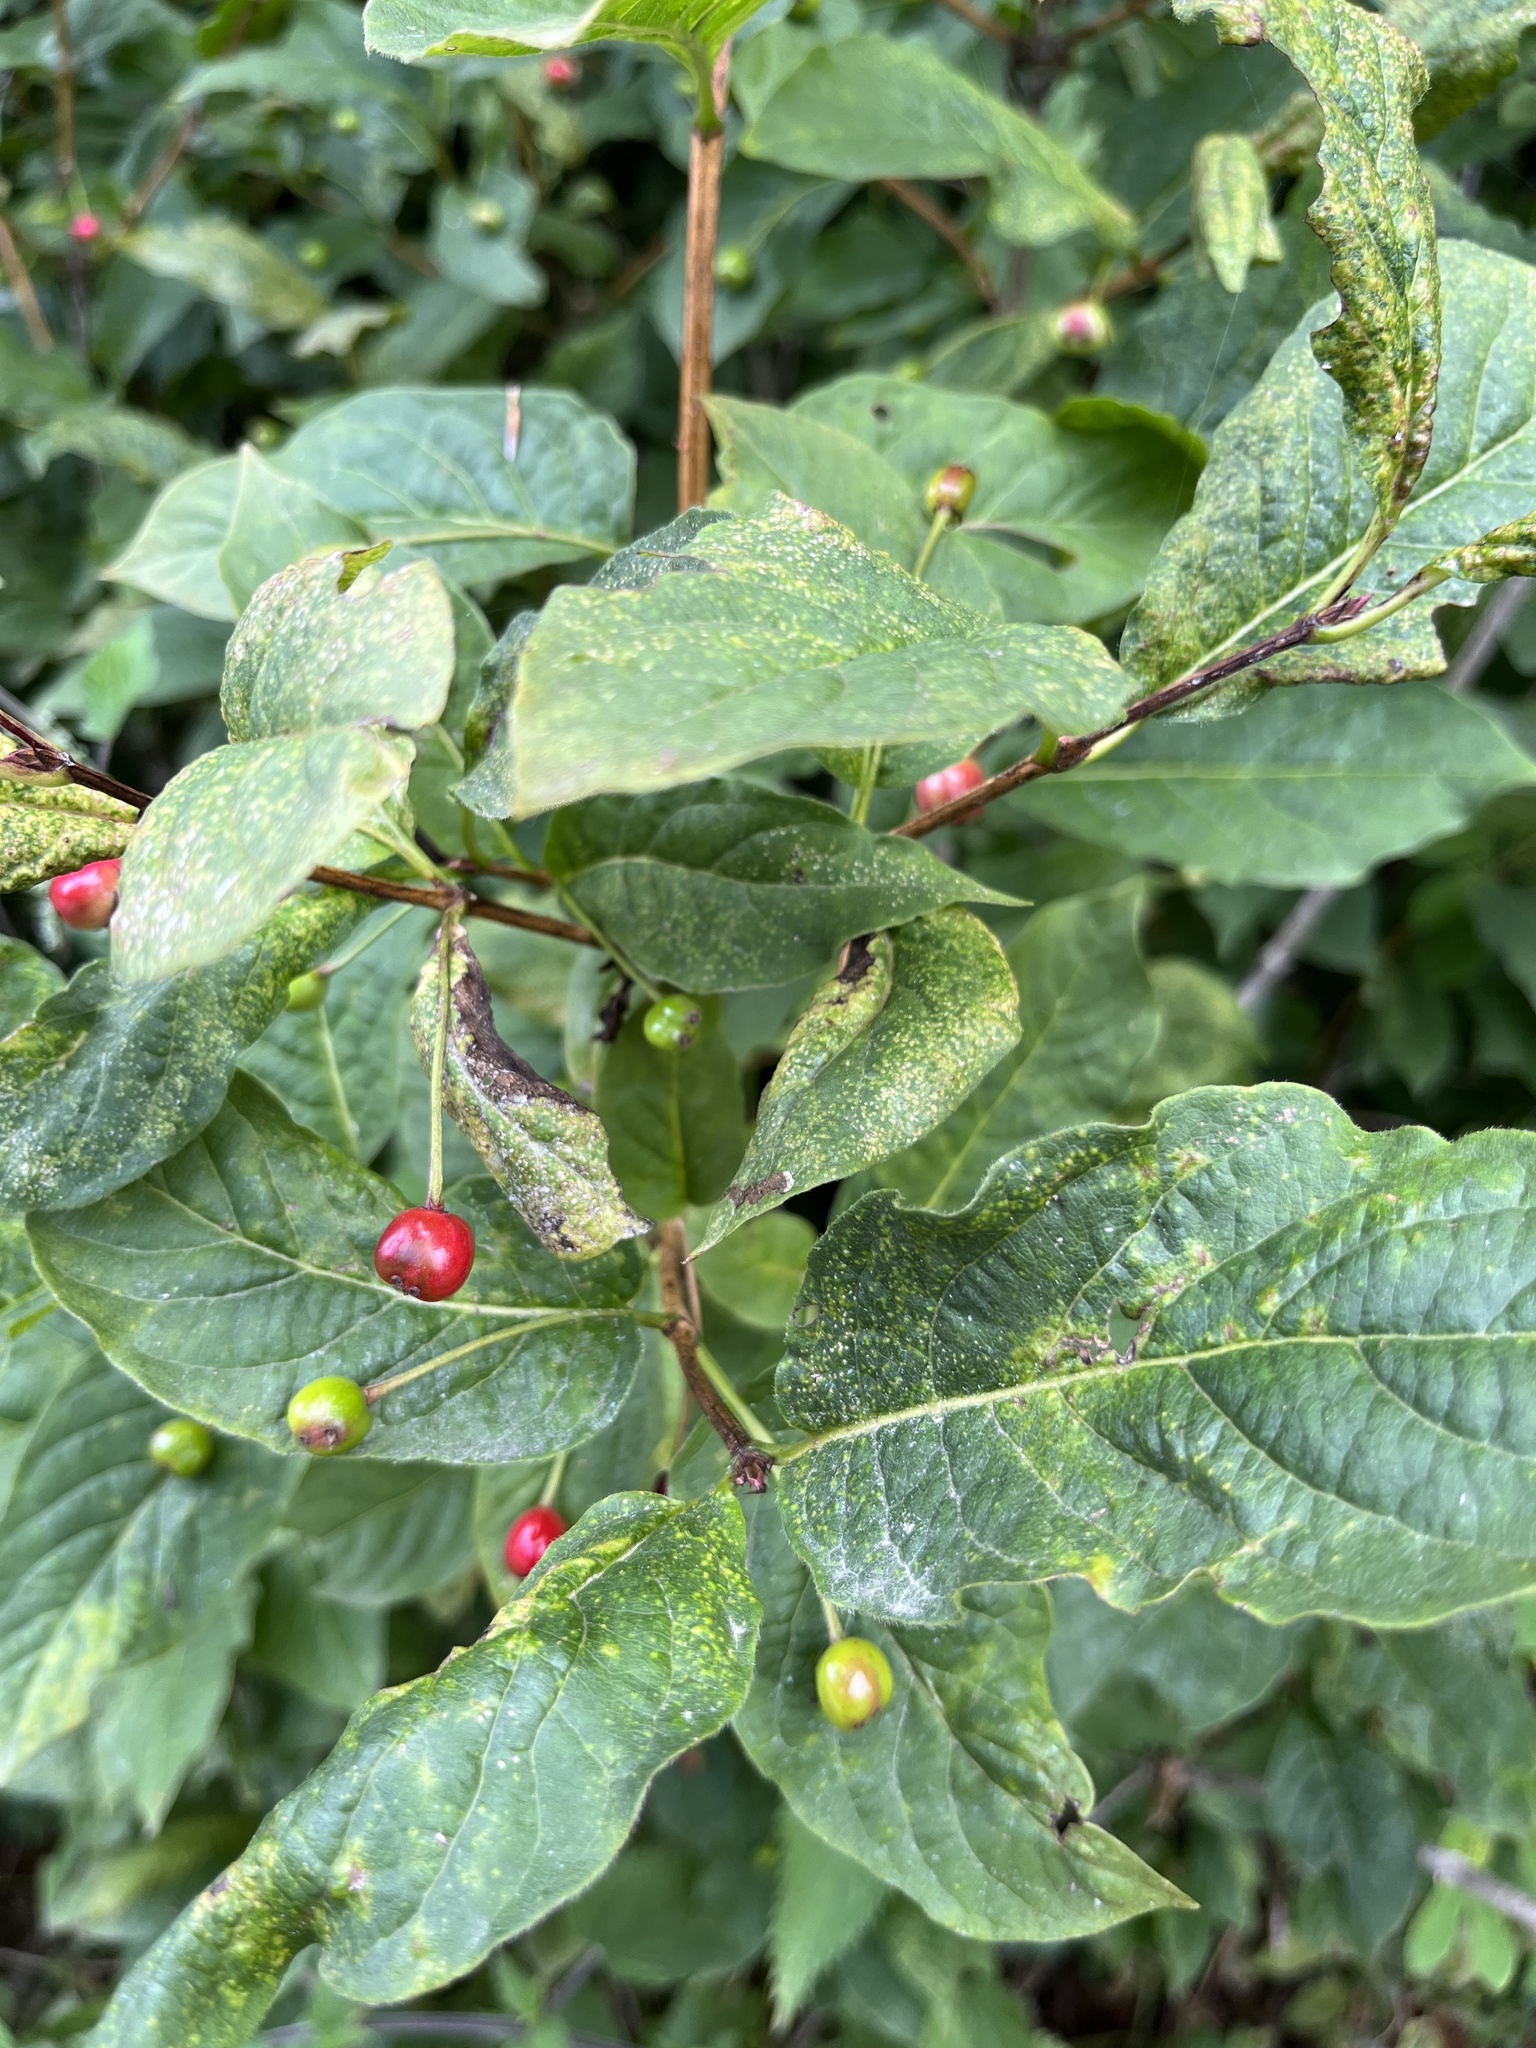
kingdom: Plantae
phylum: Tracheophyta
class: Magnoliopsida
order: Dipsacales
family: Caprifoliaceae
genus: Lonicera
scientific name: Lonicera alpigena
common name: Alpine honeysuckle
